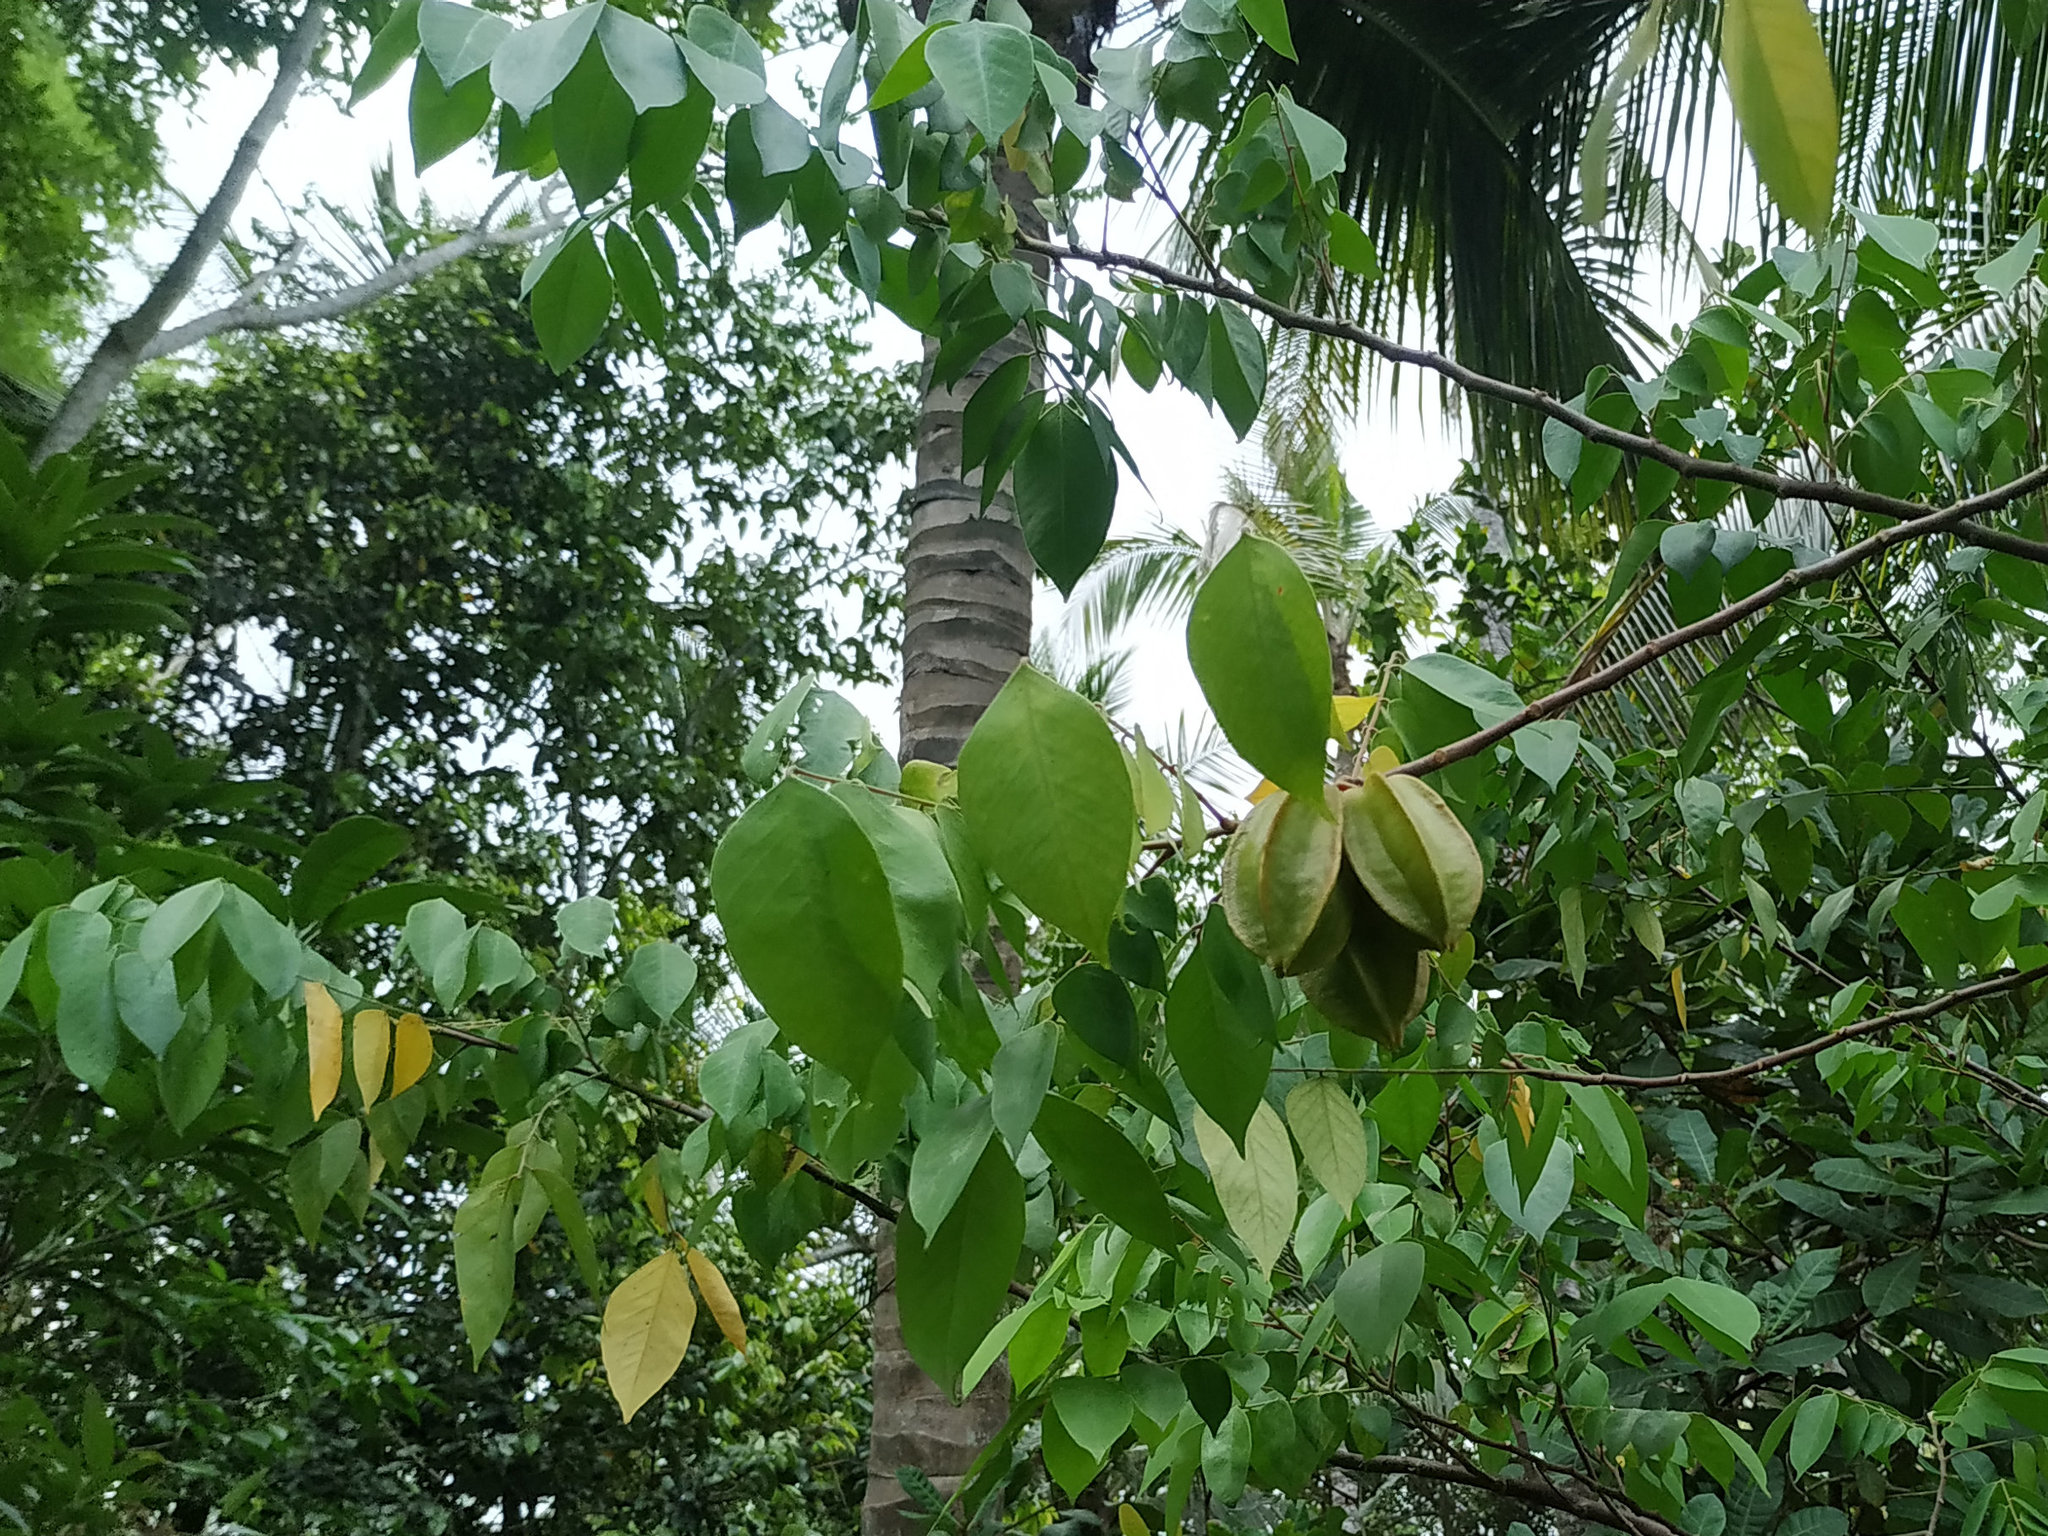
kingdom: Plantae
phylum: Tracheophyta
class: Magnoliopsida
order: Oxalidales
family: Oxalidaceae
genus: Averrhoa
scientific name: Averrhoa carambola
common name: Blimbing
